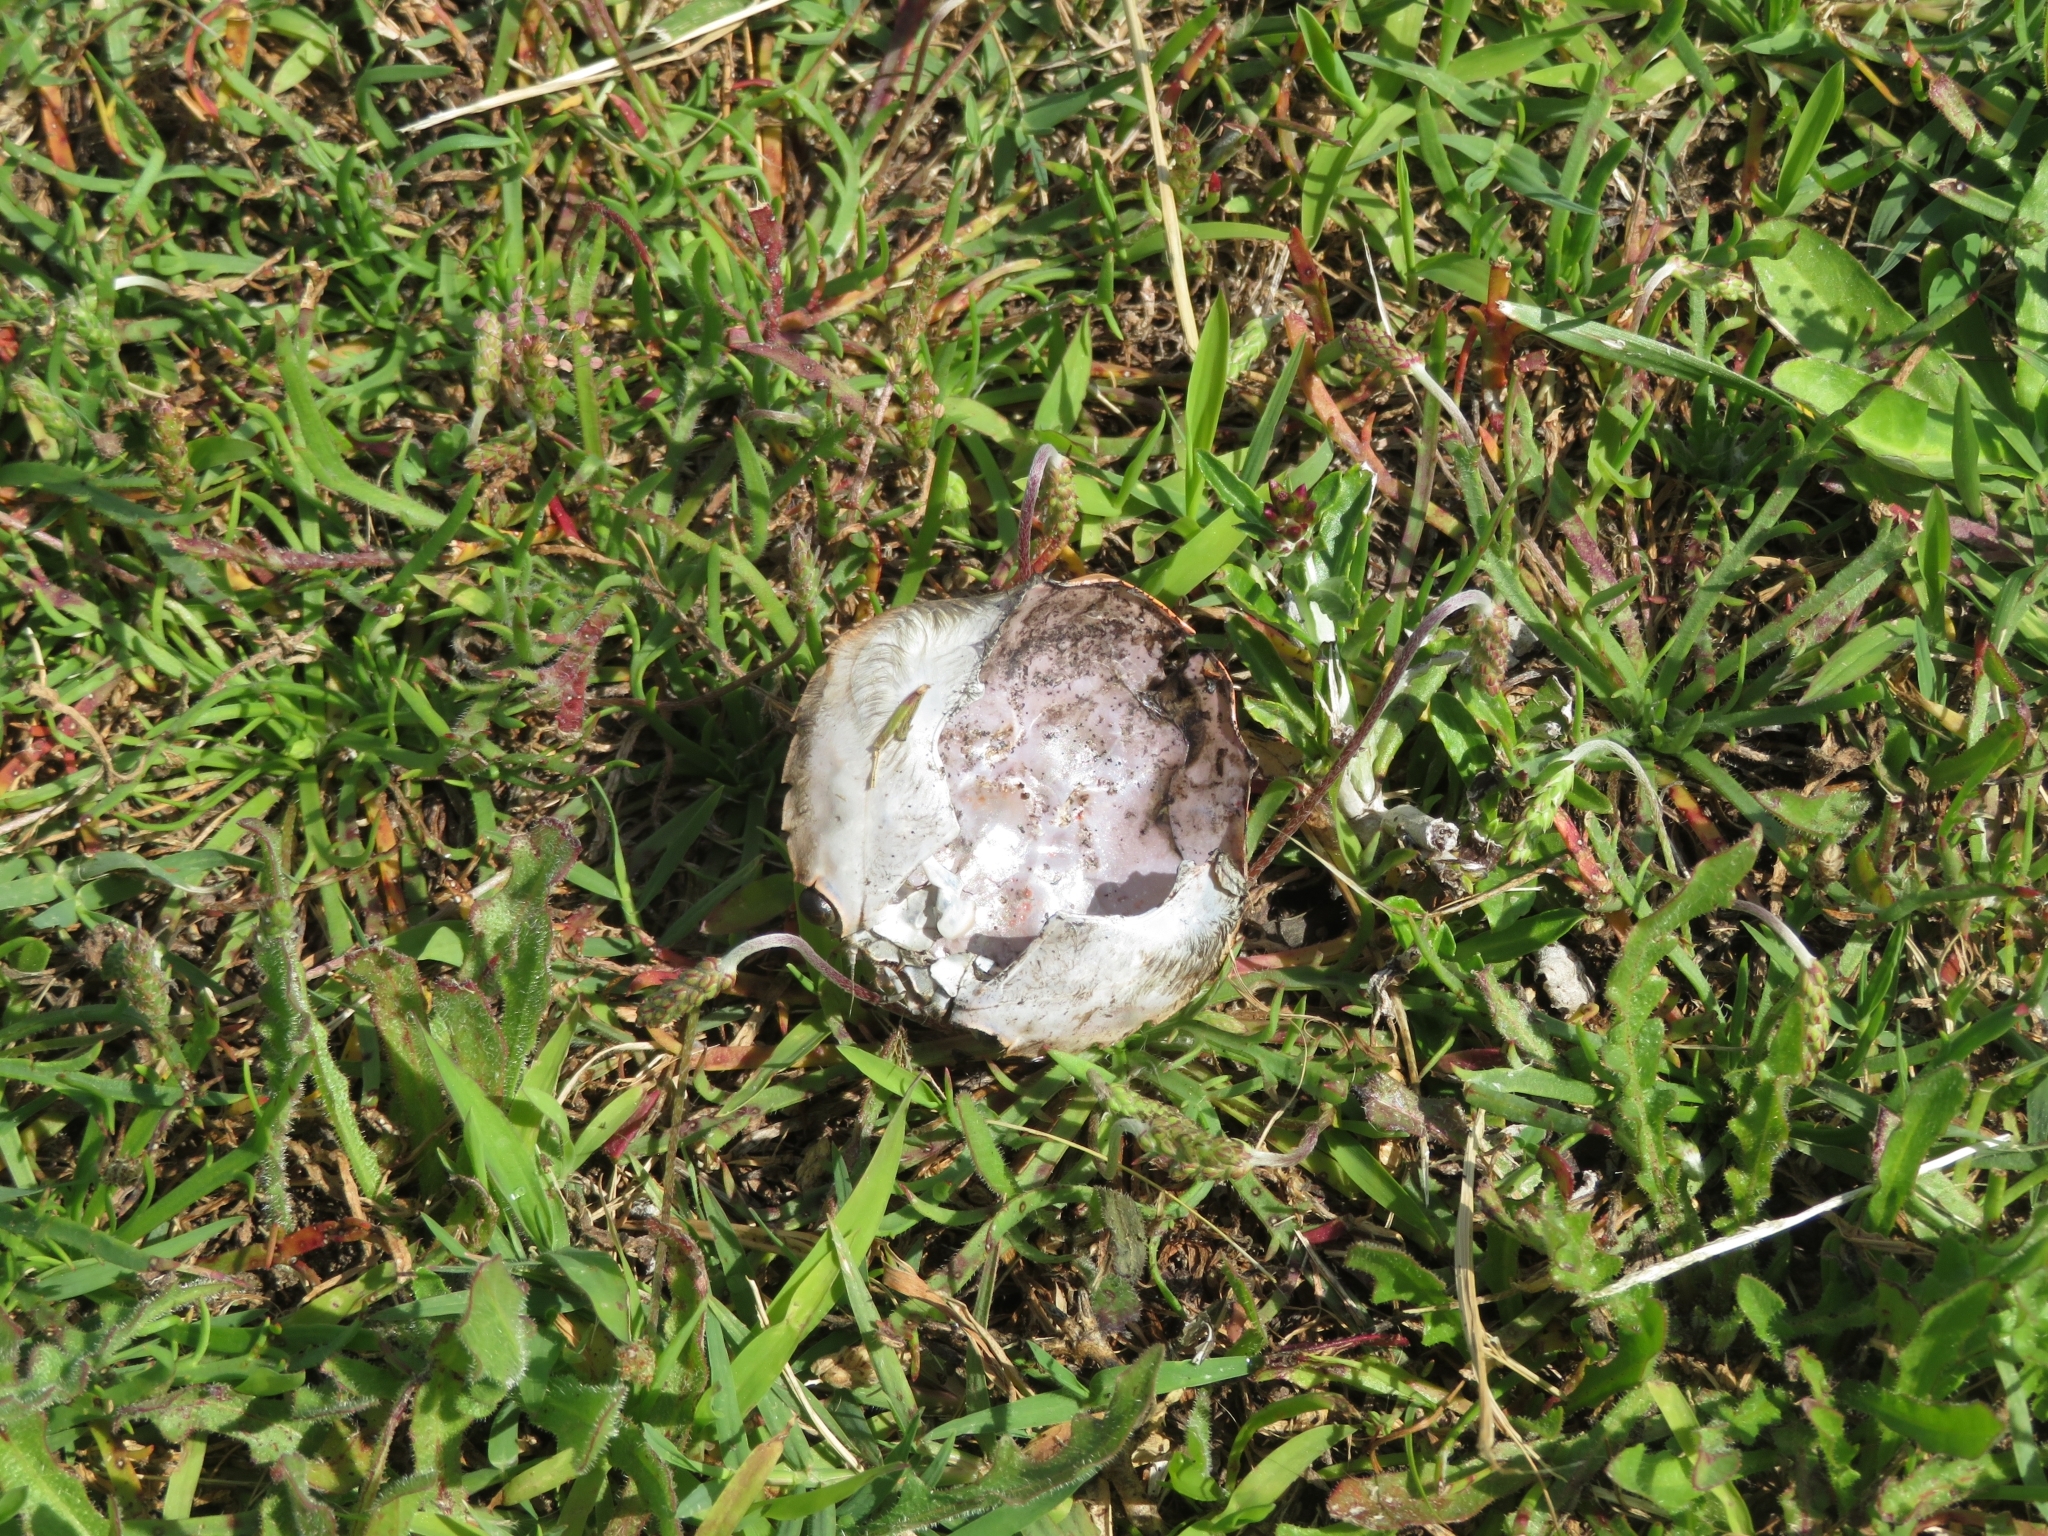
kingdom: Animalia
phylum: Arthropoda
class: Malacostraca
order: Decapoda
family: Polybiidae
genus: Polybius
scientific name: Polybius henslowii
